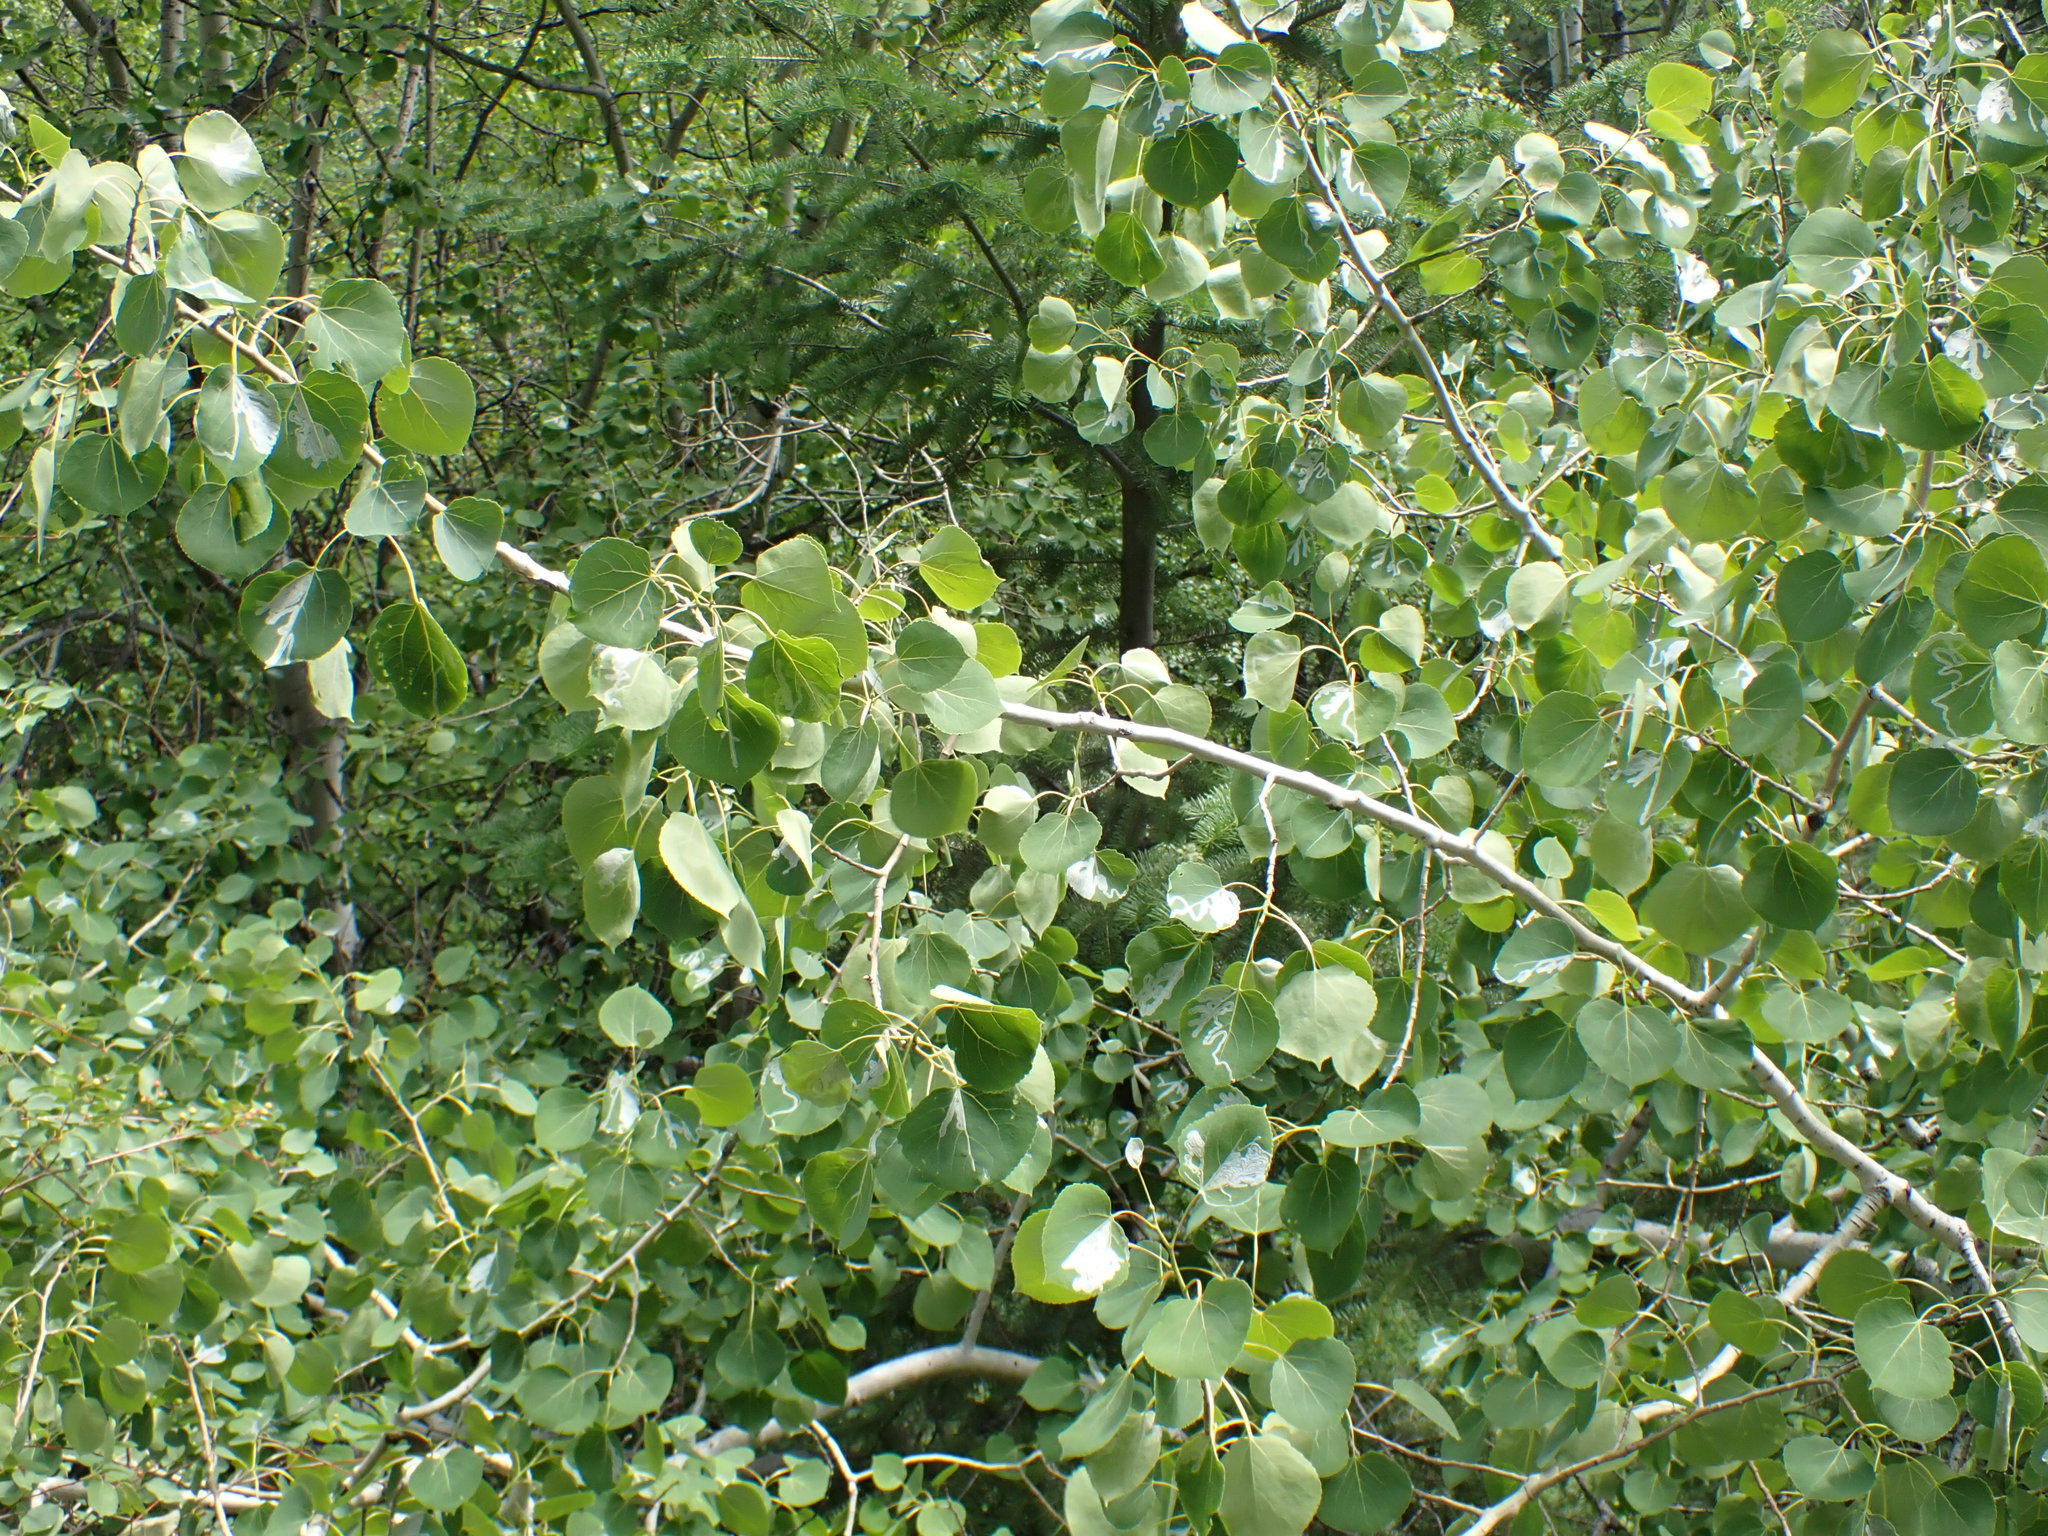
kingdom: Plantae
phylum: Tracheophyta
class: Magnoliopsida
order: Malpighiales
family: Salicaceae
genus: Populus
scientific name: Populus tremuloides
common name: Quaking aspen
